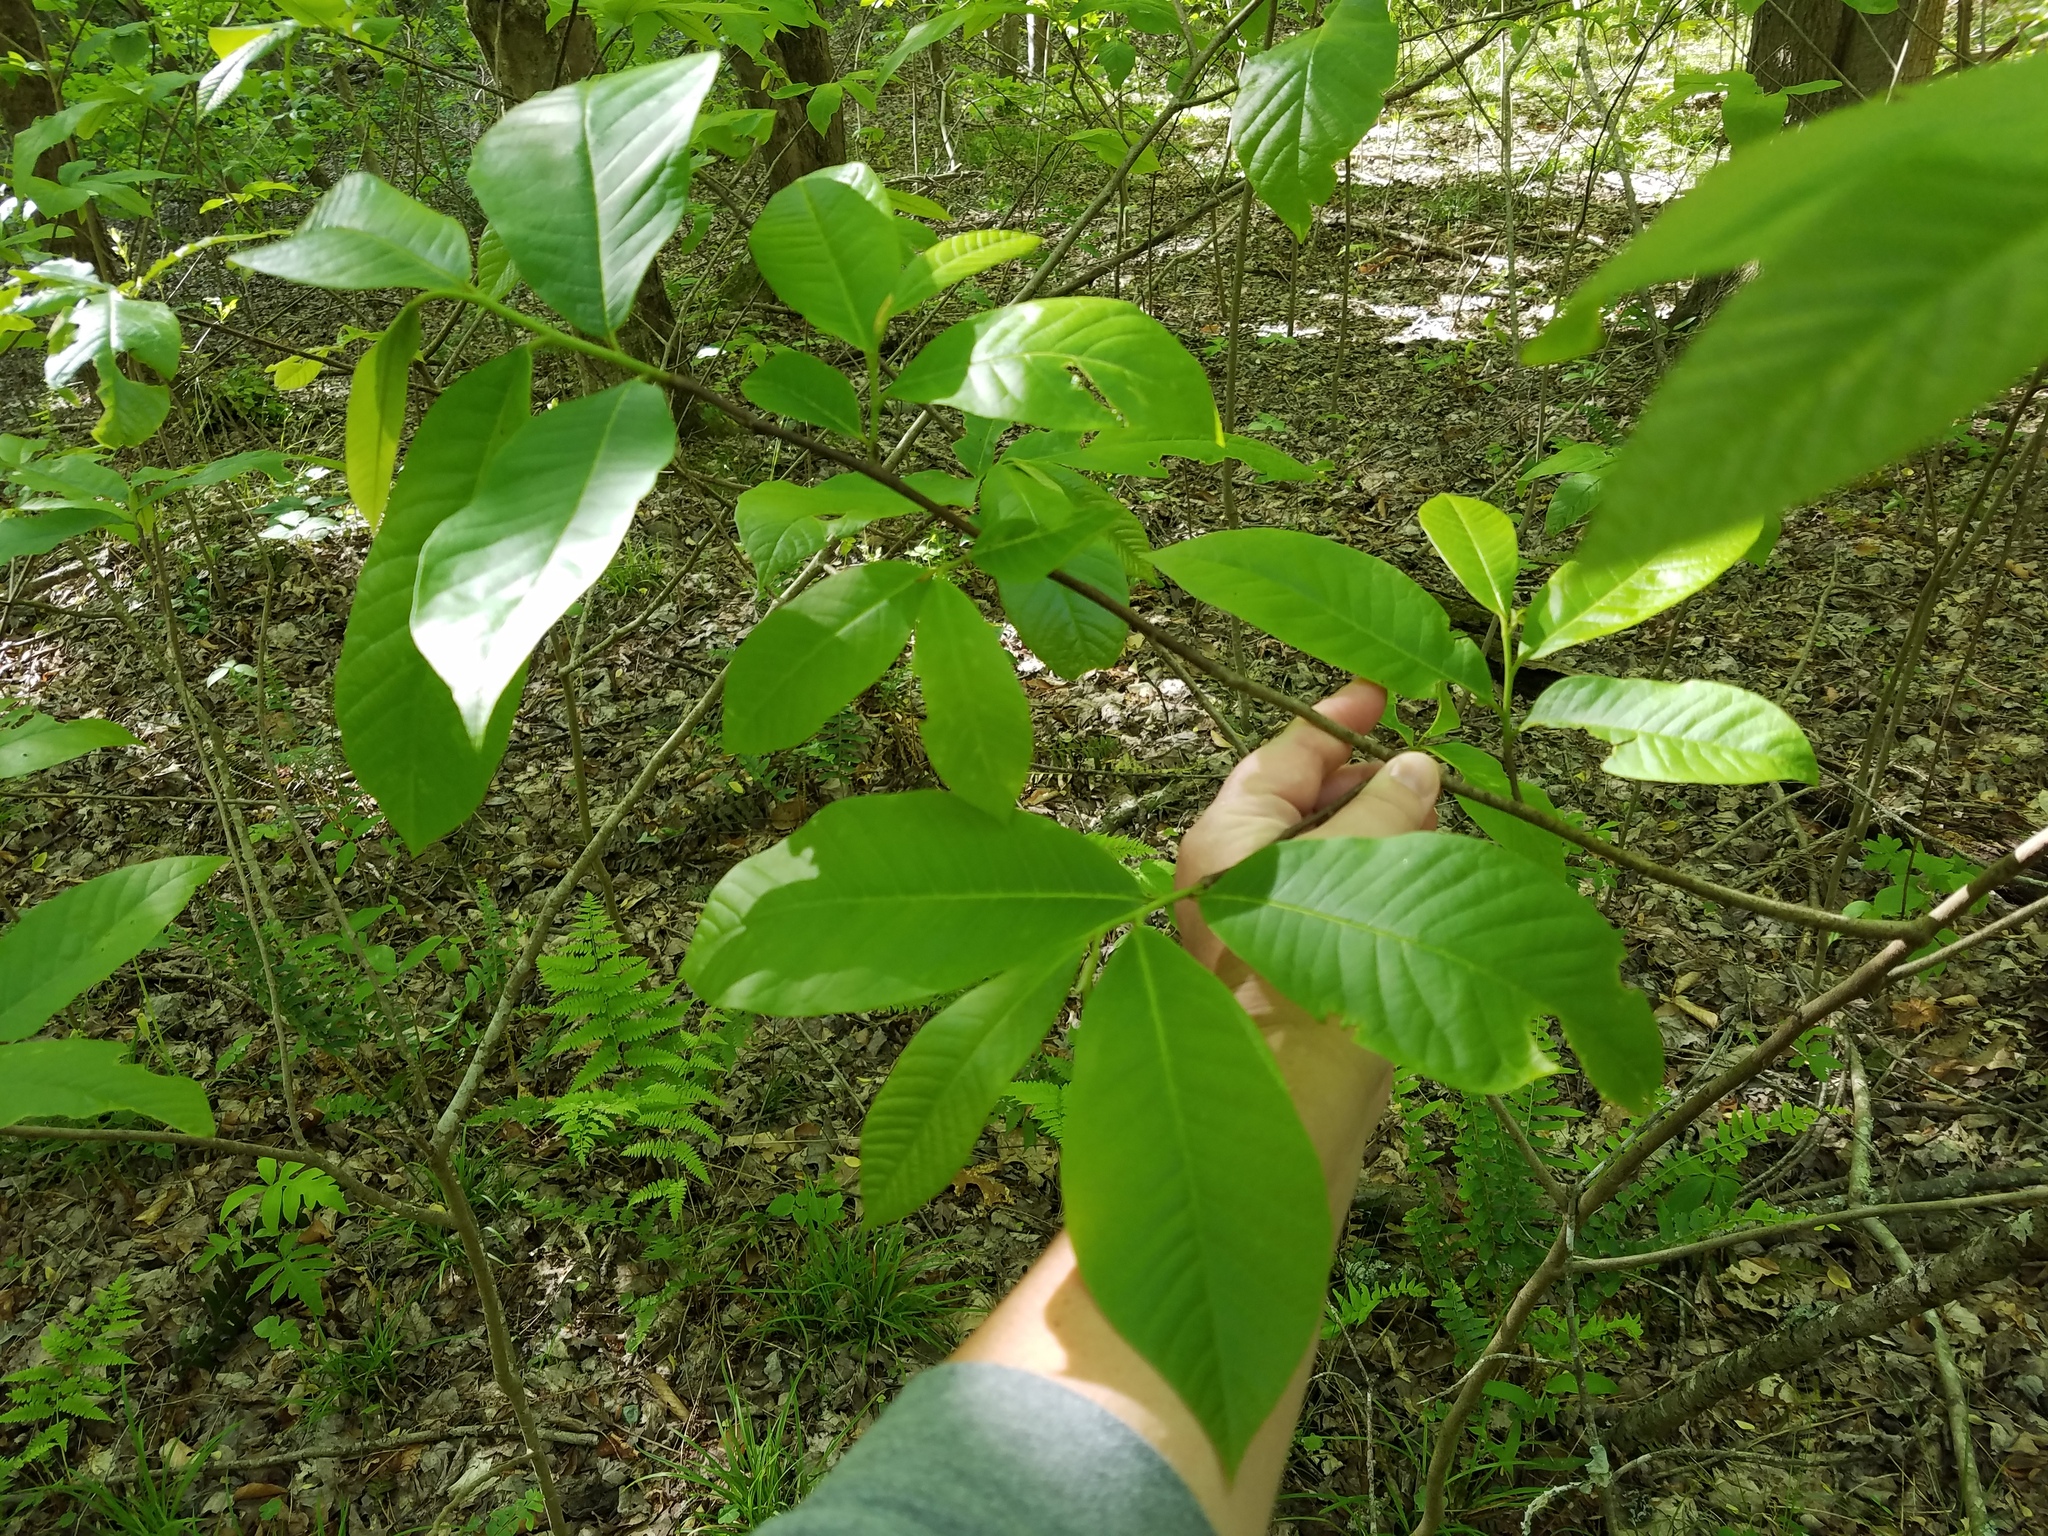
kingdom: Plantae
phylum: Tracheophyta
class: Magnoliopsida
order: Magnoliales
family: Annonaceae
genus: Asimina
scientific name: Asimina triloba
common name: Dog-banana
